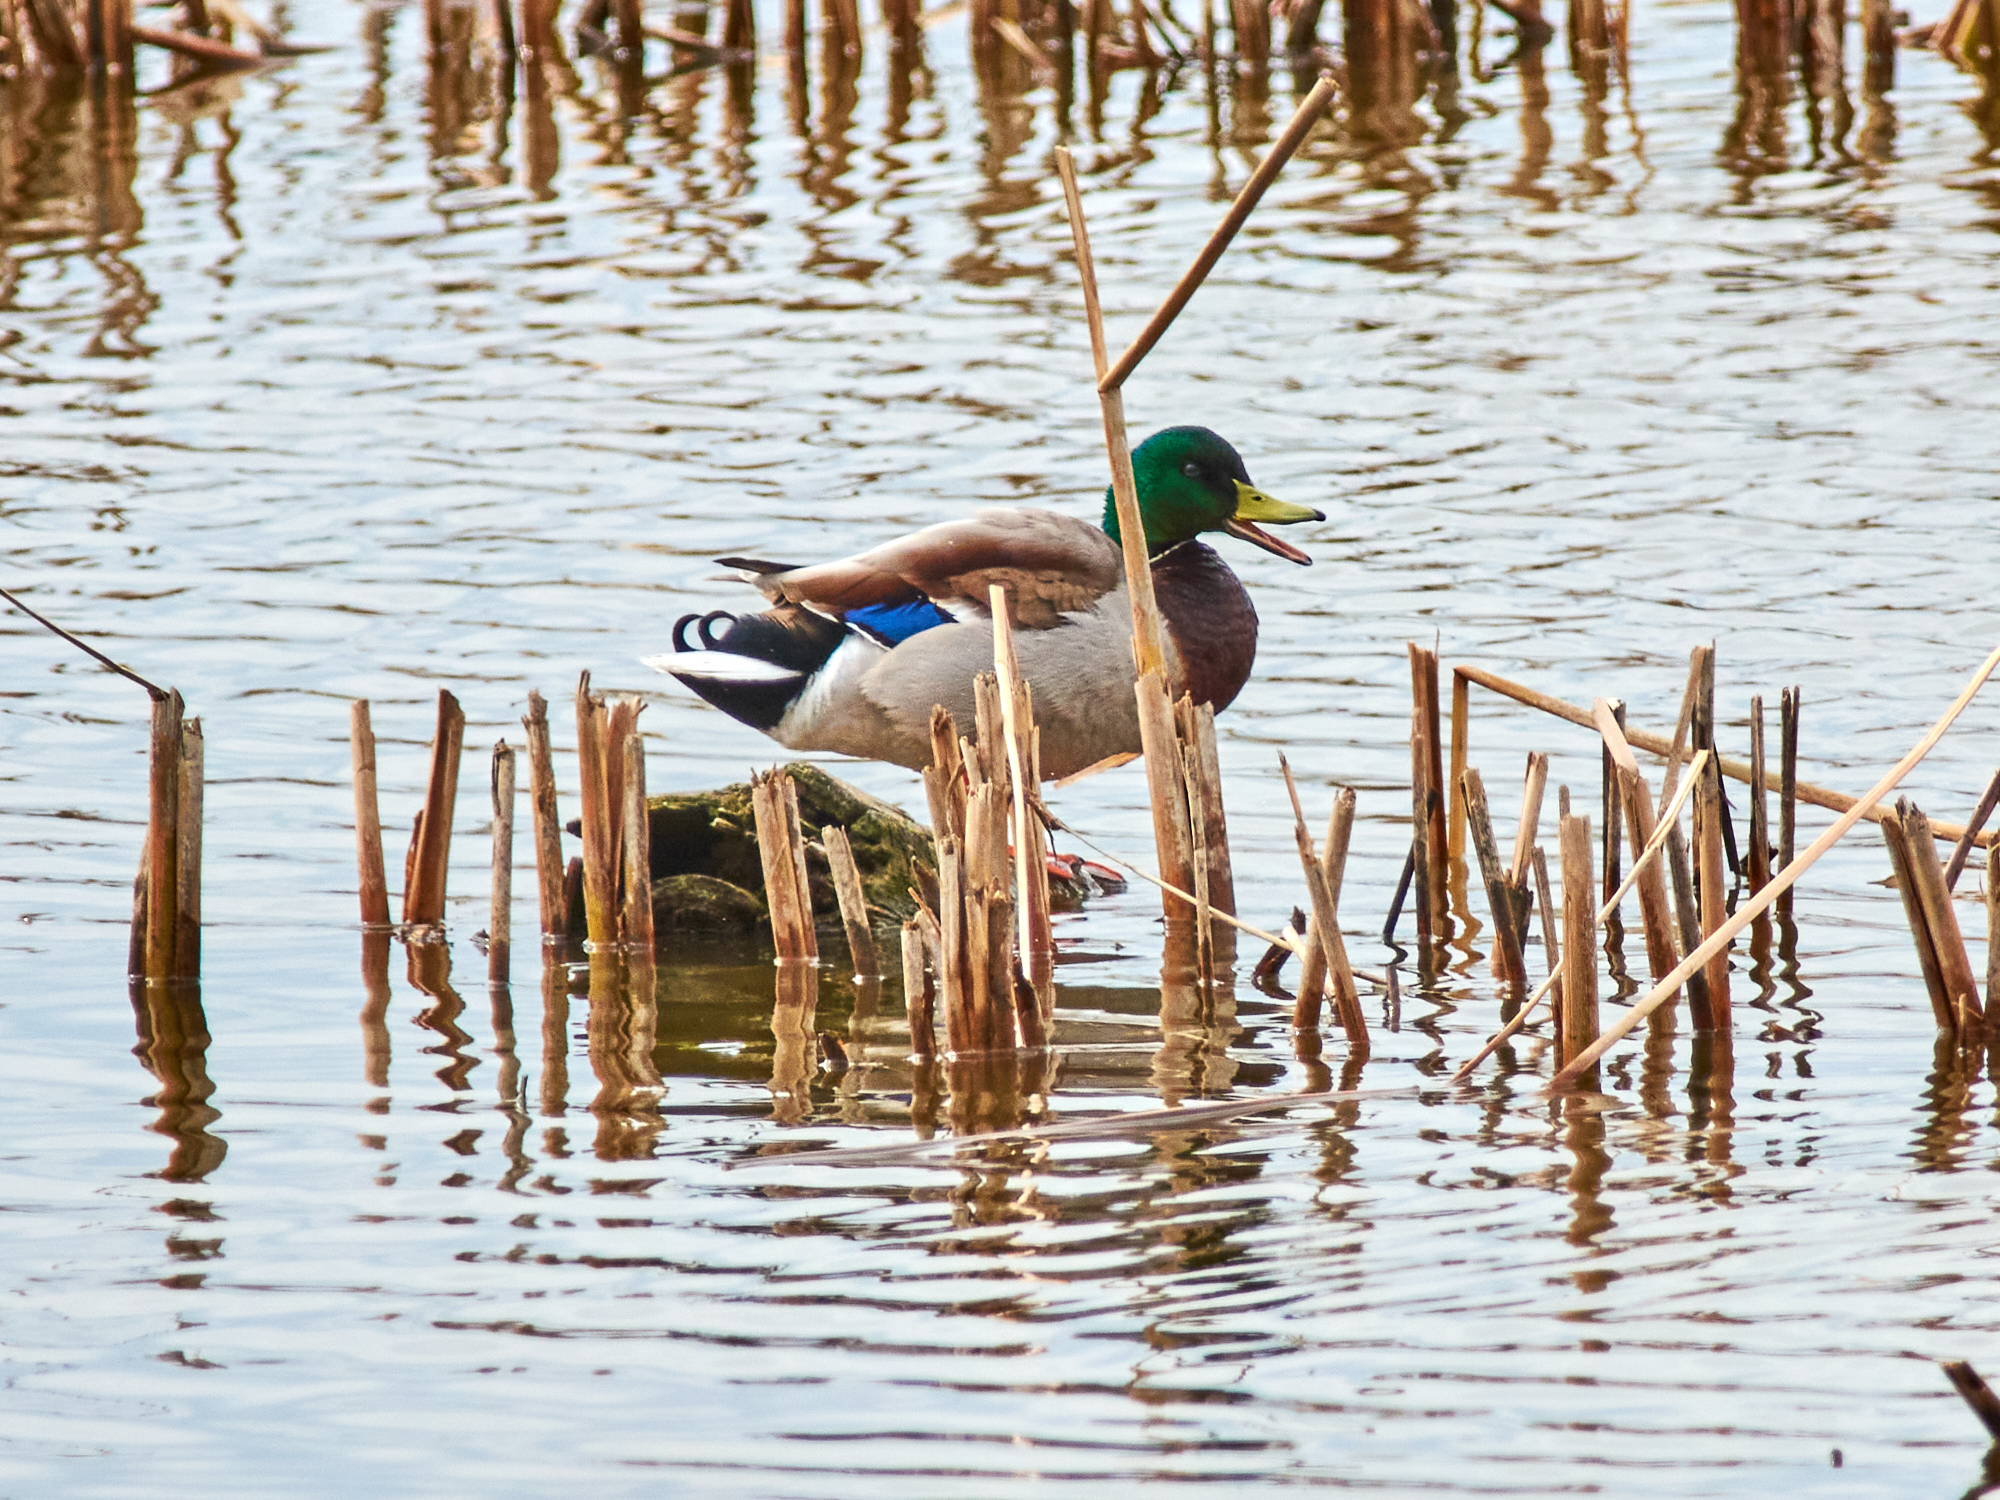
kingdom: Animalia
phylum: Chordata
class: Aves
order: Anseriformes
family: Anatidae
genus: Anas
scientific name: Anas platyrhynchos
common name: Mallard
